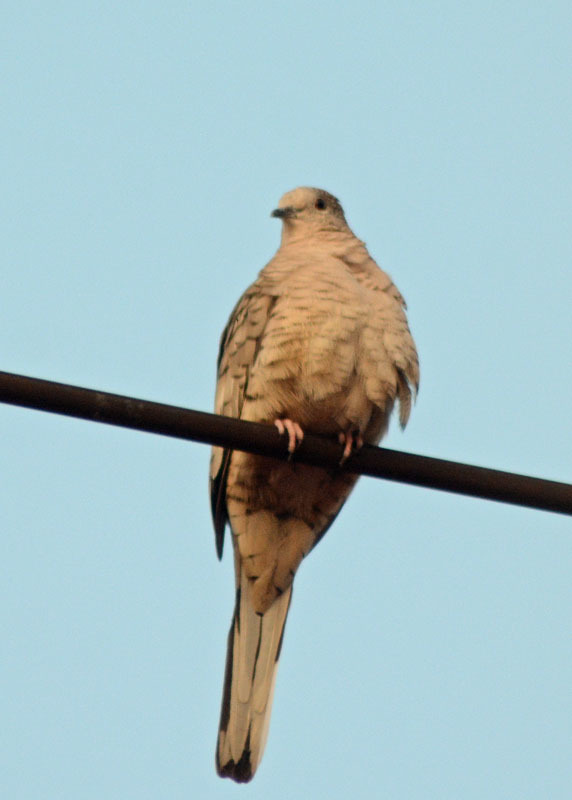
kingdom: Animalia
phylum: Chordata
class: Aves
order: Columbiformes
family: Columbidae
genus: Columbina
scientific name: Columbina inca
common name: Inca dove
